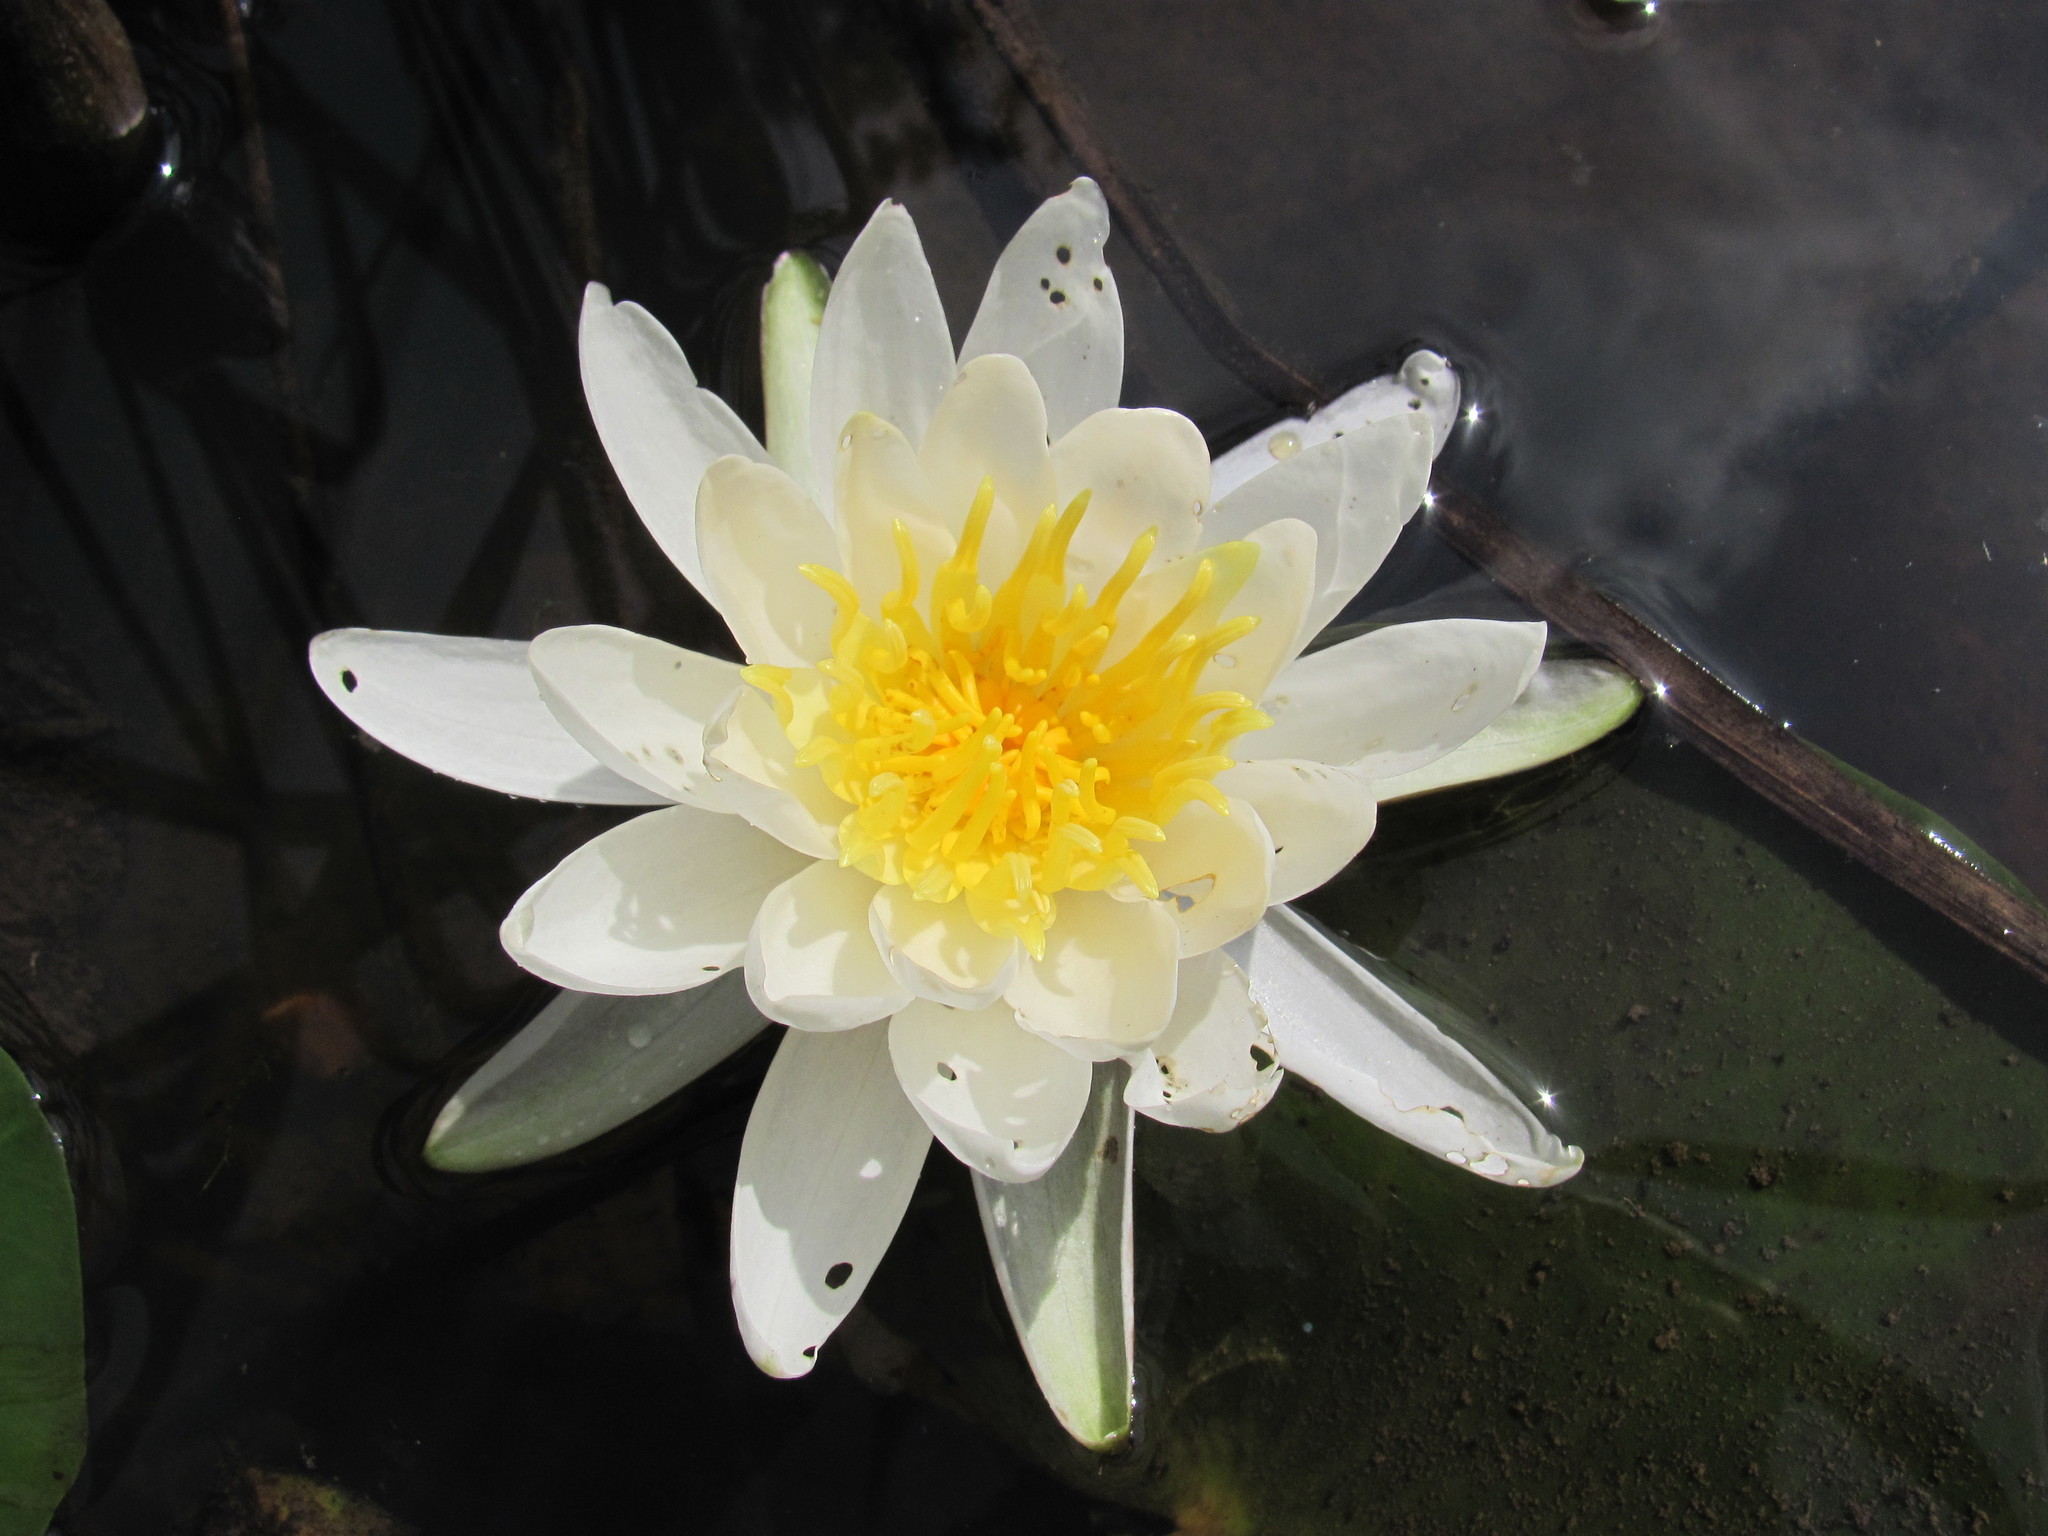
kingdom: Plantae
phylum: Tracheophyta
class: Magnoliopsida
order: Nymphaeales
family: Nymphaeaceae
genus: Nymphaea
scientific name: Nymphaea odorata
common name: Fragrant water-lily
